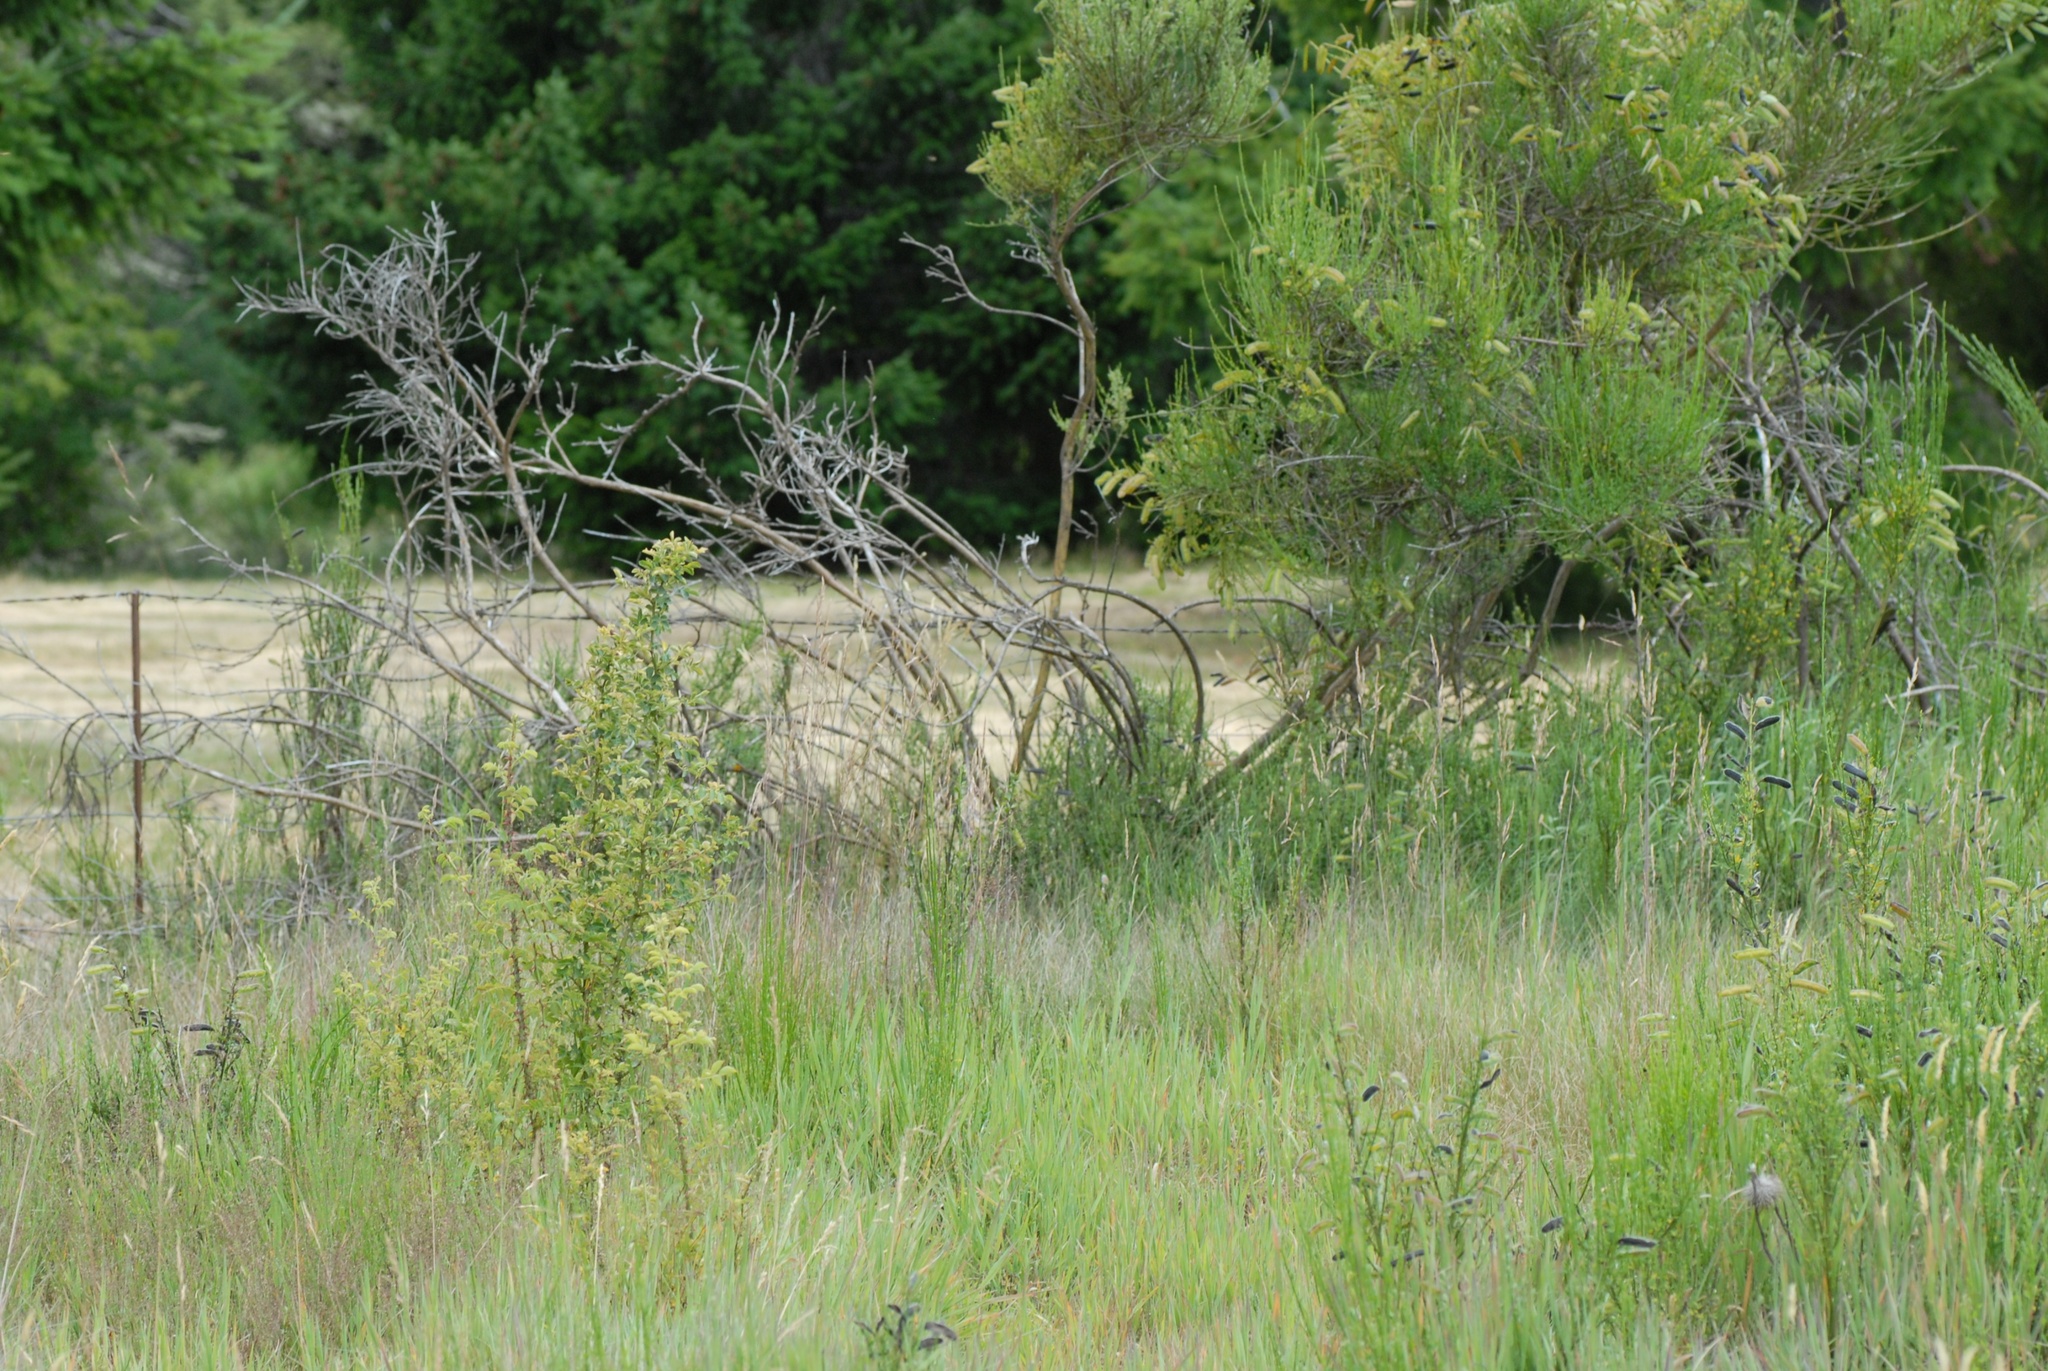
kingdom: Plantae
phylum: Tracheophyta
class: Magnoliopsida
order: Fabales
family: Fabaceae
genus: Cytisus
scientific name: Cytisus scoparius
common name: Scotch broom
